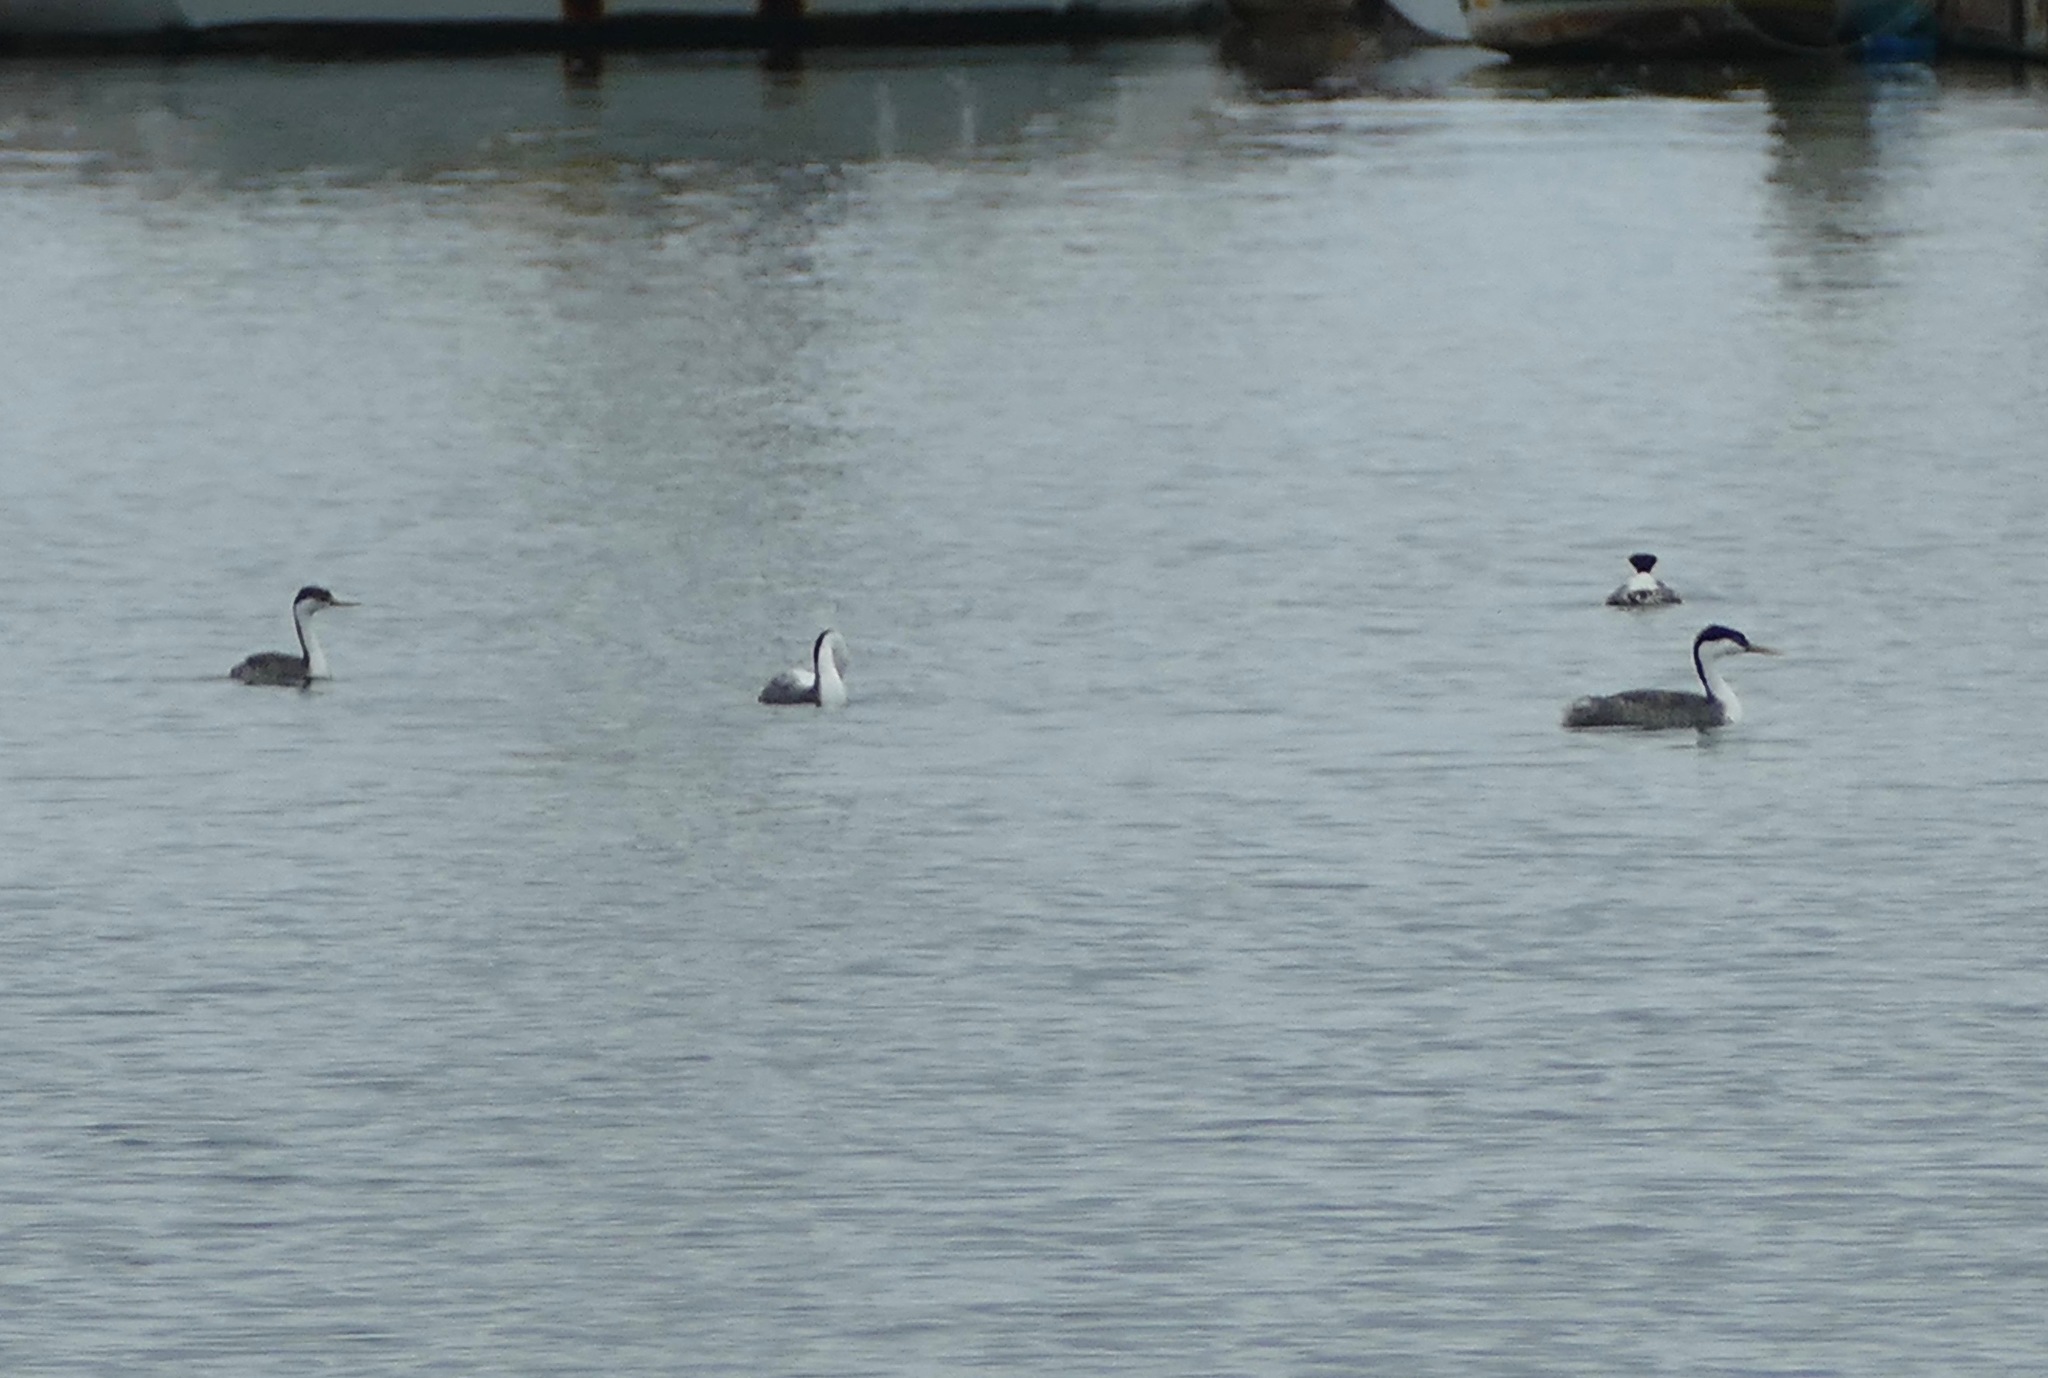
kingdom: Animalia
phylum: Chordata
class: Aves
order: Podicipediformes
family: Podicipedidae
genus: Aechmophorus
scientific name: Aechmophorus occidentalis
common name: Western grebe
